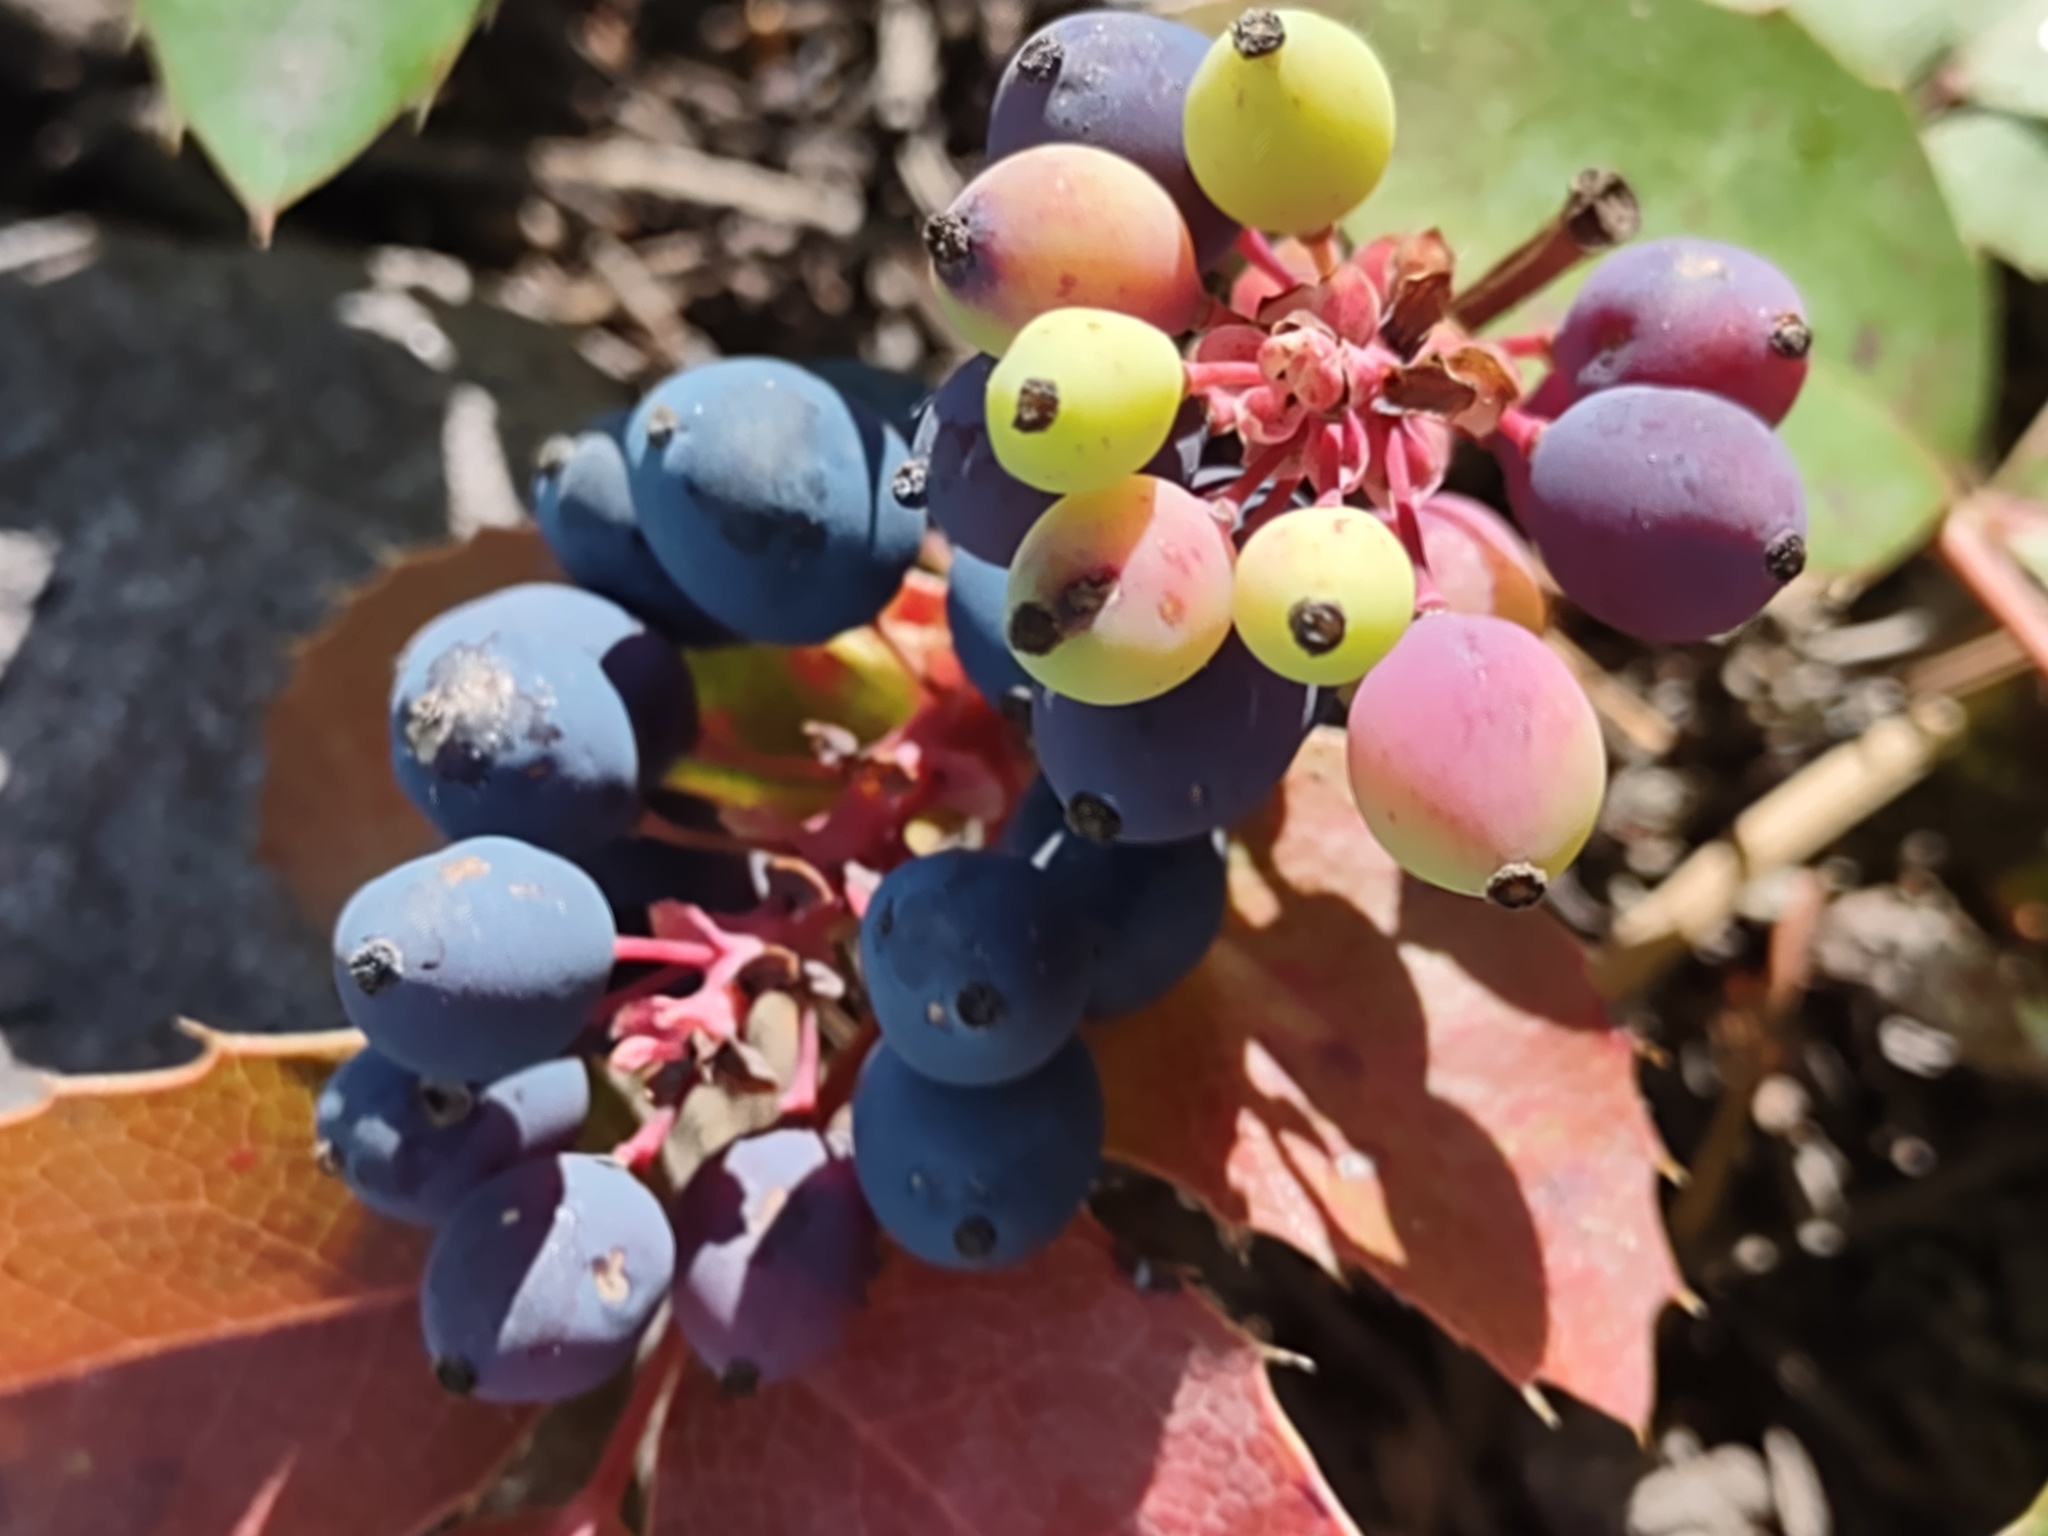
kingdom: Plantae
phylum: Tracheophyta
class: Magnoliopsida
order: Ranunculales
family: Berberidaceae
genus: Mahonia
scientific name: Mahonia repens
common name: Creeping oregon-grape
